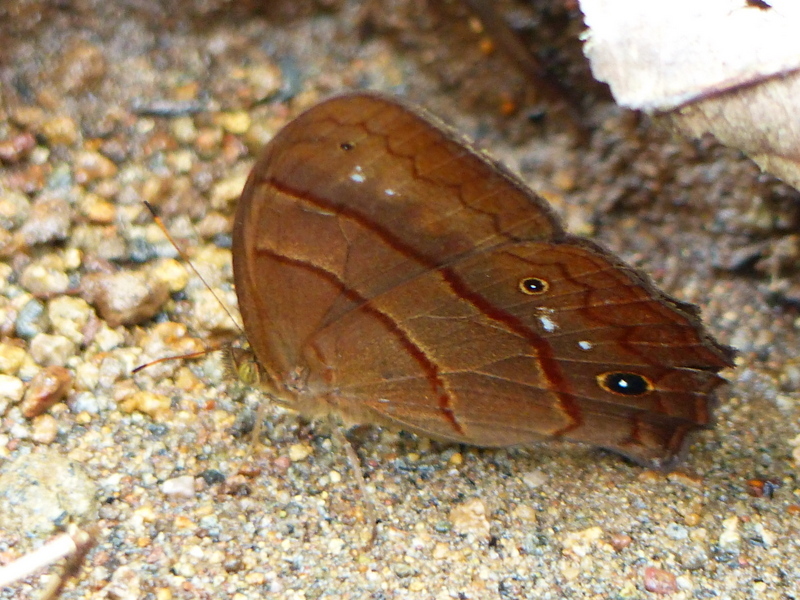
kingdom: Animalia
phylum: Arthropoda
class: Insecta
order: Lepidoptera
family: Nymphalidae
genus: Satyrotaygetis
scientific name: Satyrotaygetis satyrina
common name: Wide-bordered satyr
